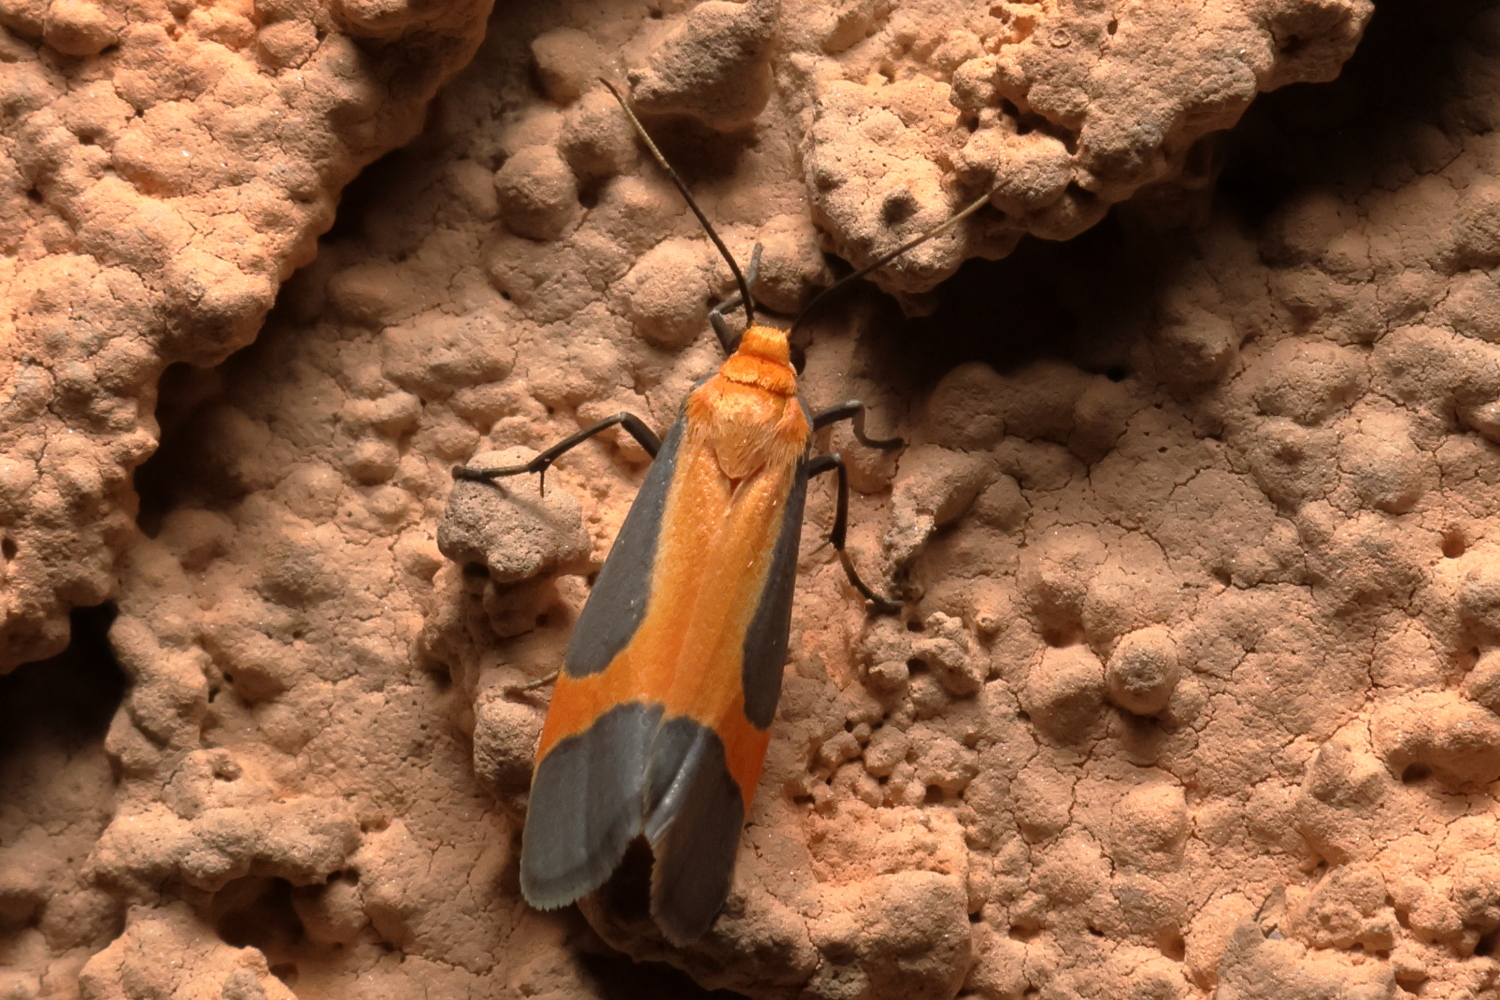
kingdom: Animalia
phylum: Arthropoda
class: Insecta
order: Lepidoptera
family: Erebidae
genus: Cisthene
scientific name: Cisthene angelus
